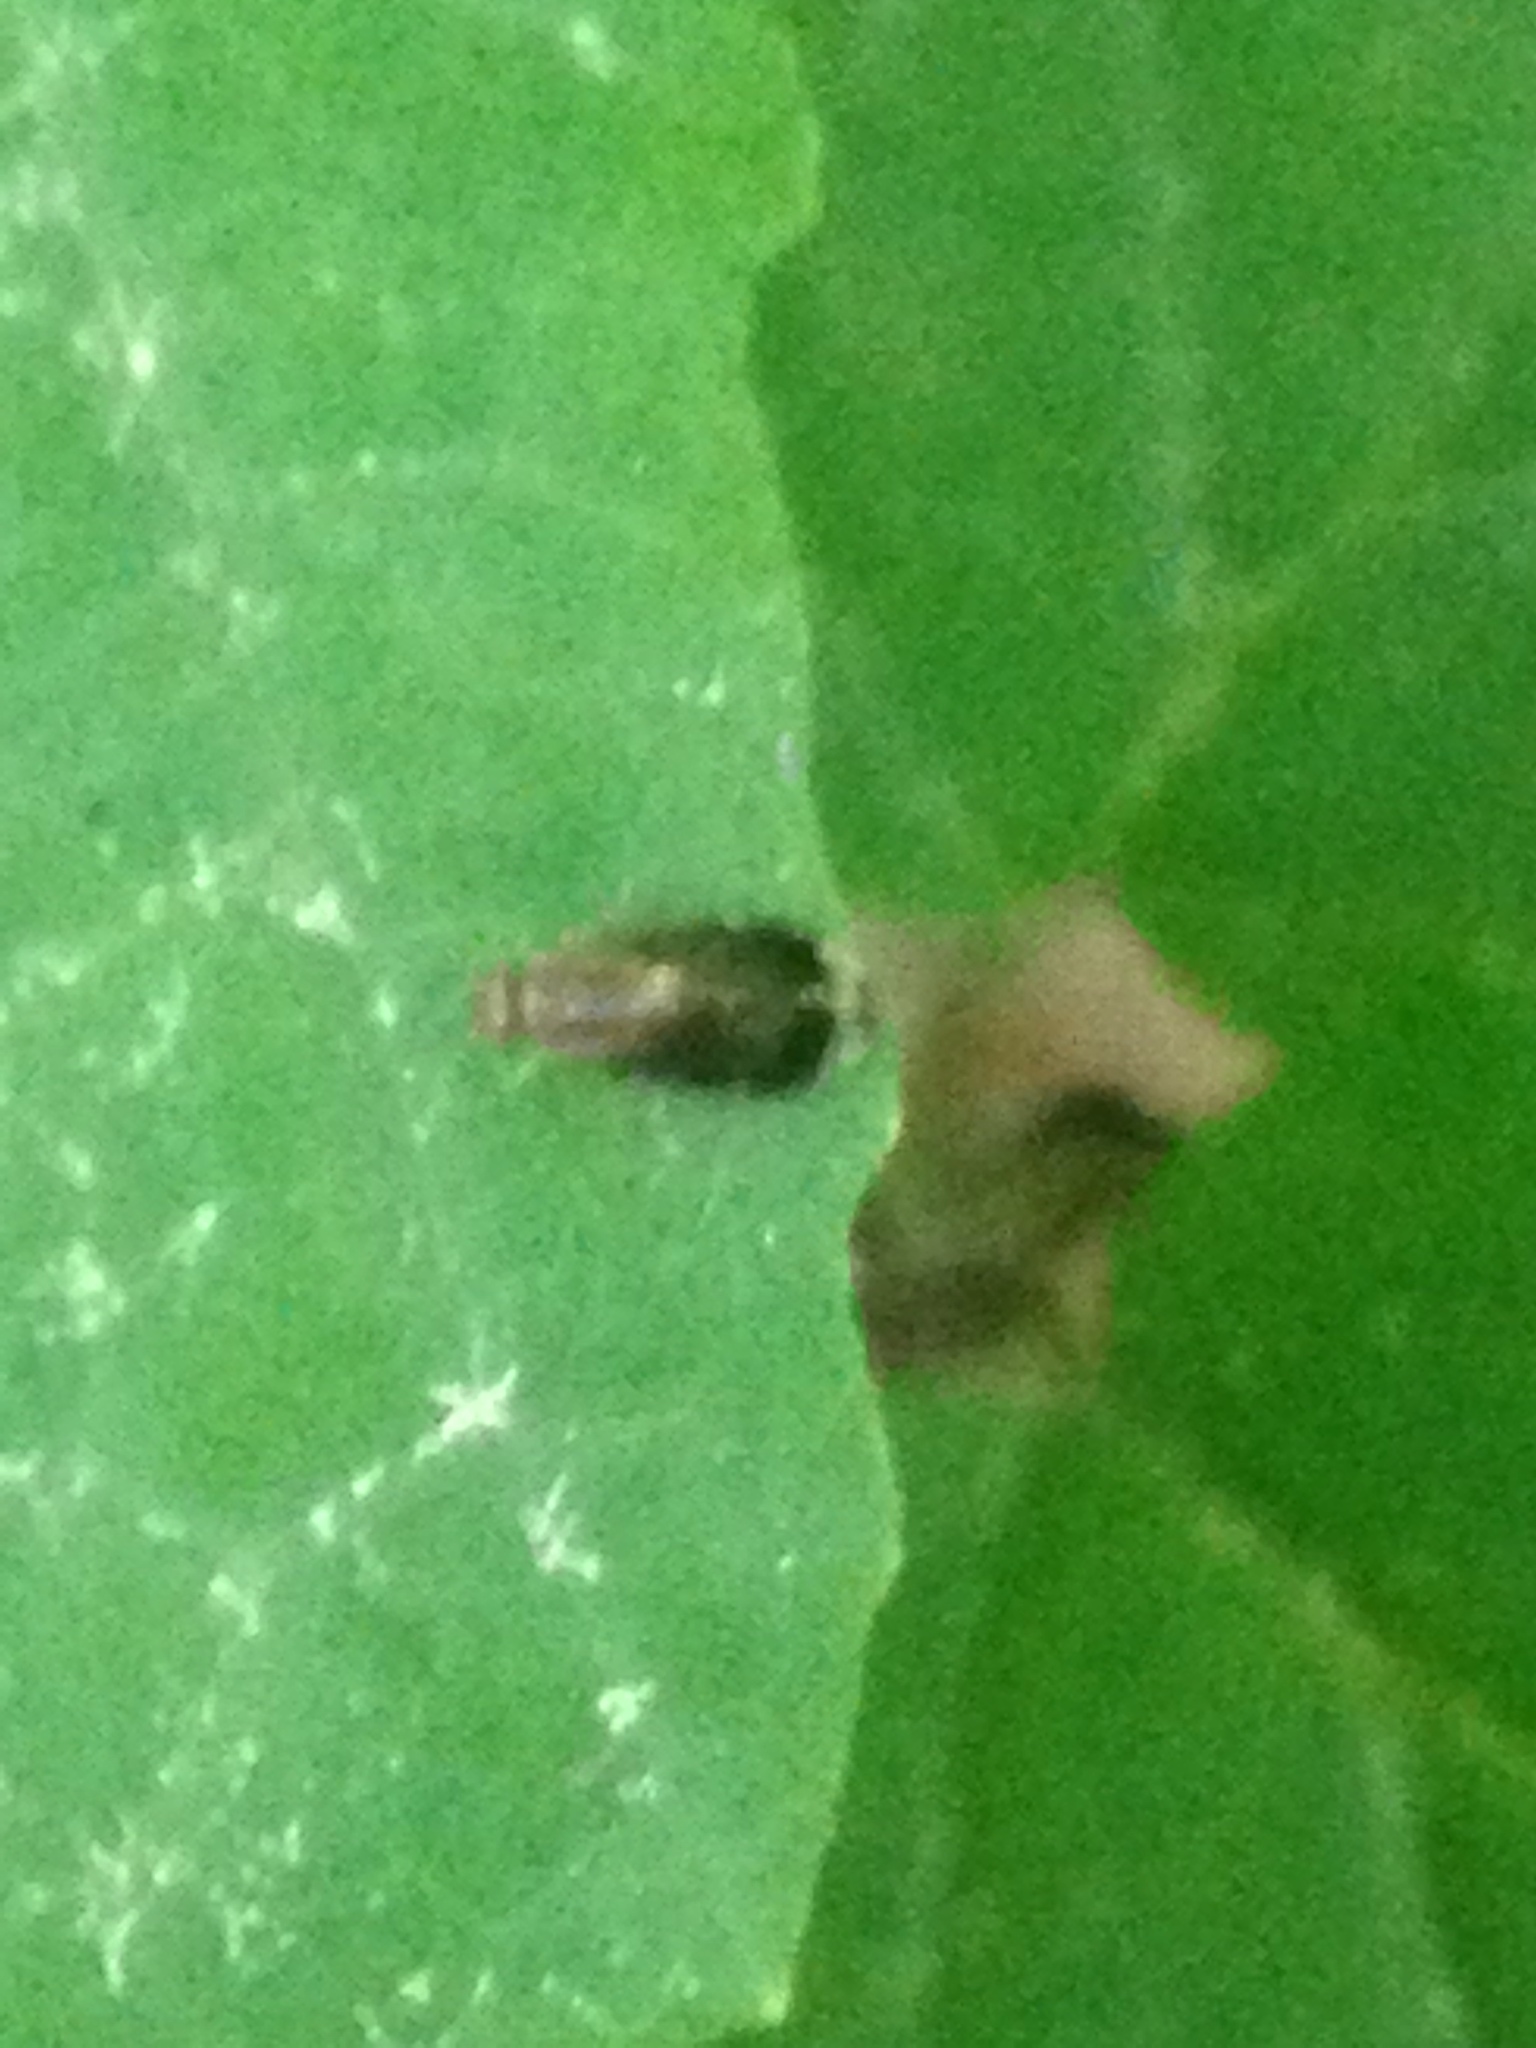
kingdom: Animalia
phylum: Arthropoda
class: Insecta
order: Psocodea
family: Amphipsocidae
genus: Polypsocus
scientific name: Polypsocus corruptus
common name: Corrupt barklouse
